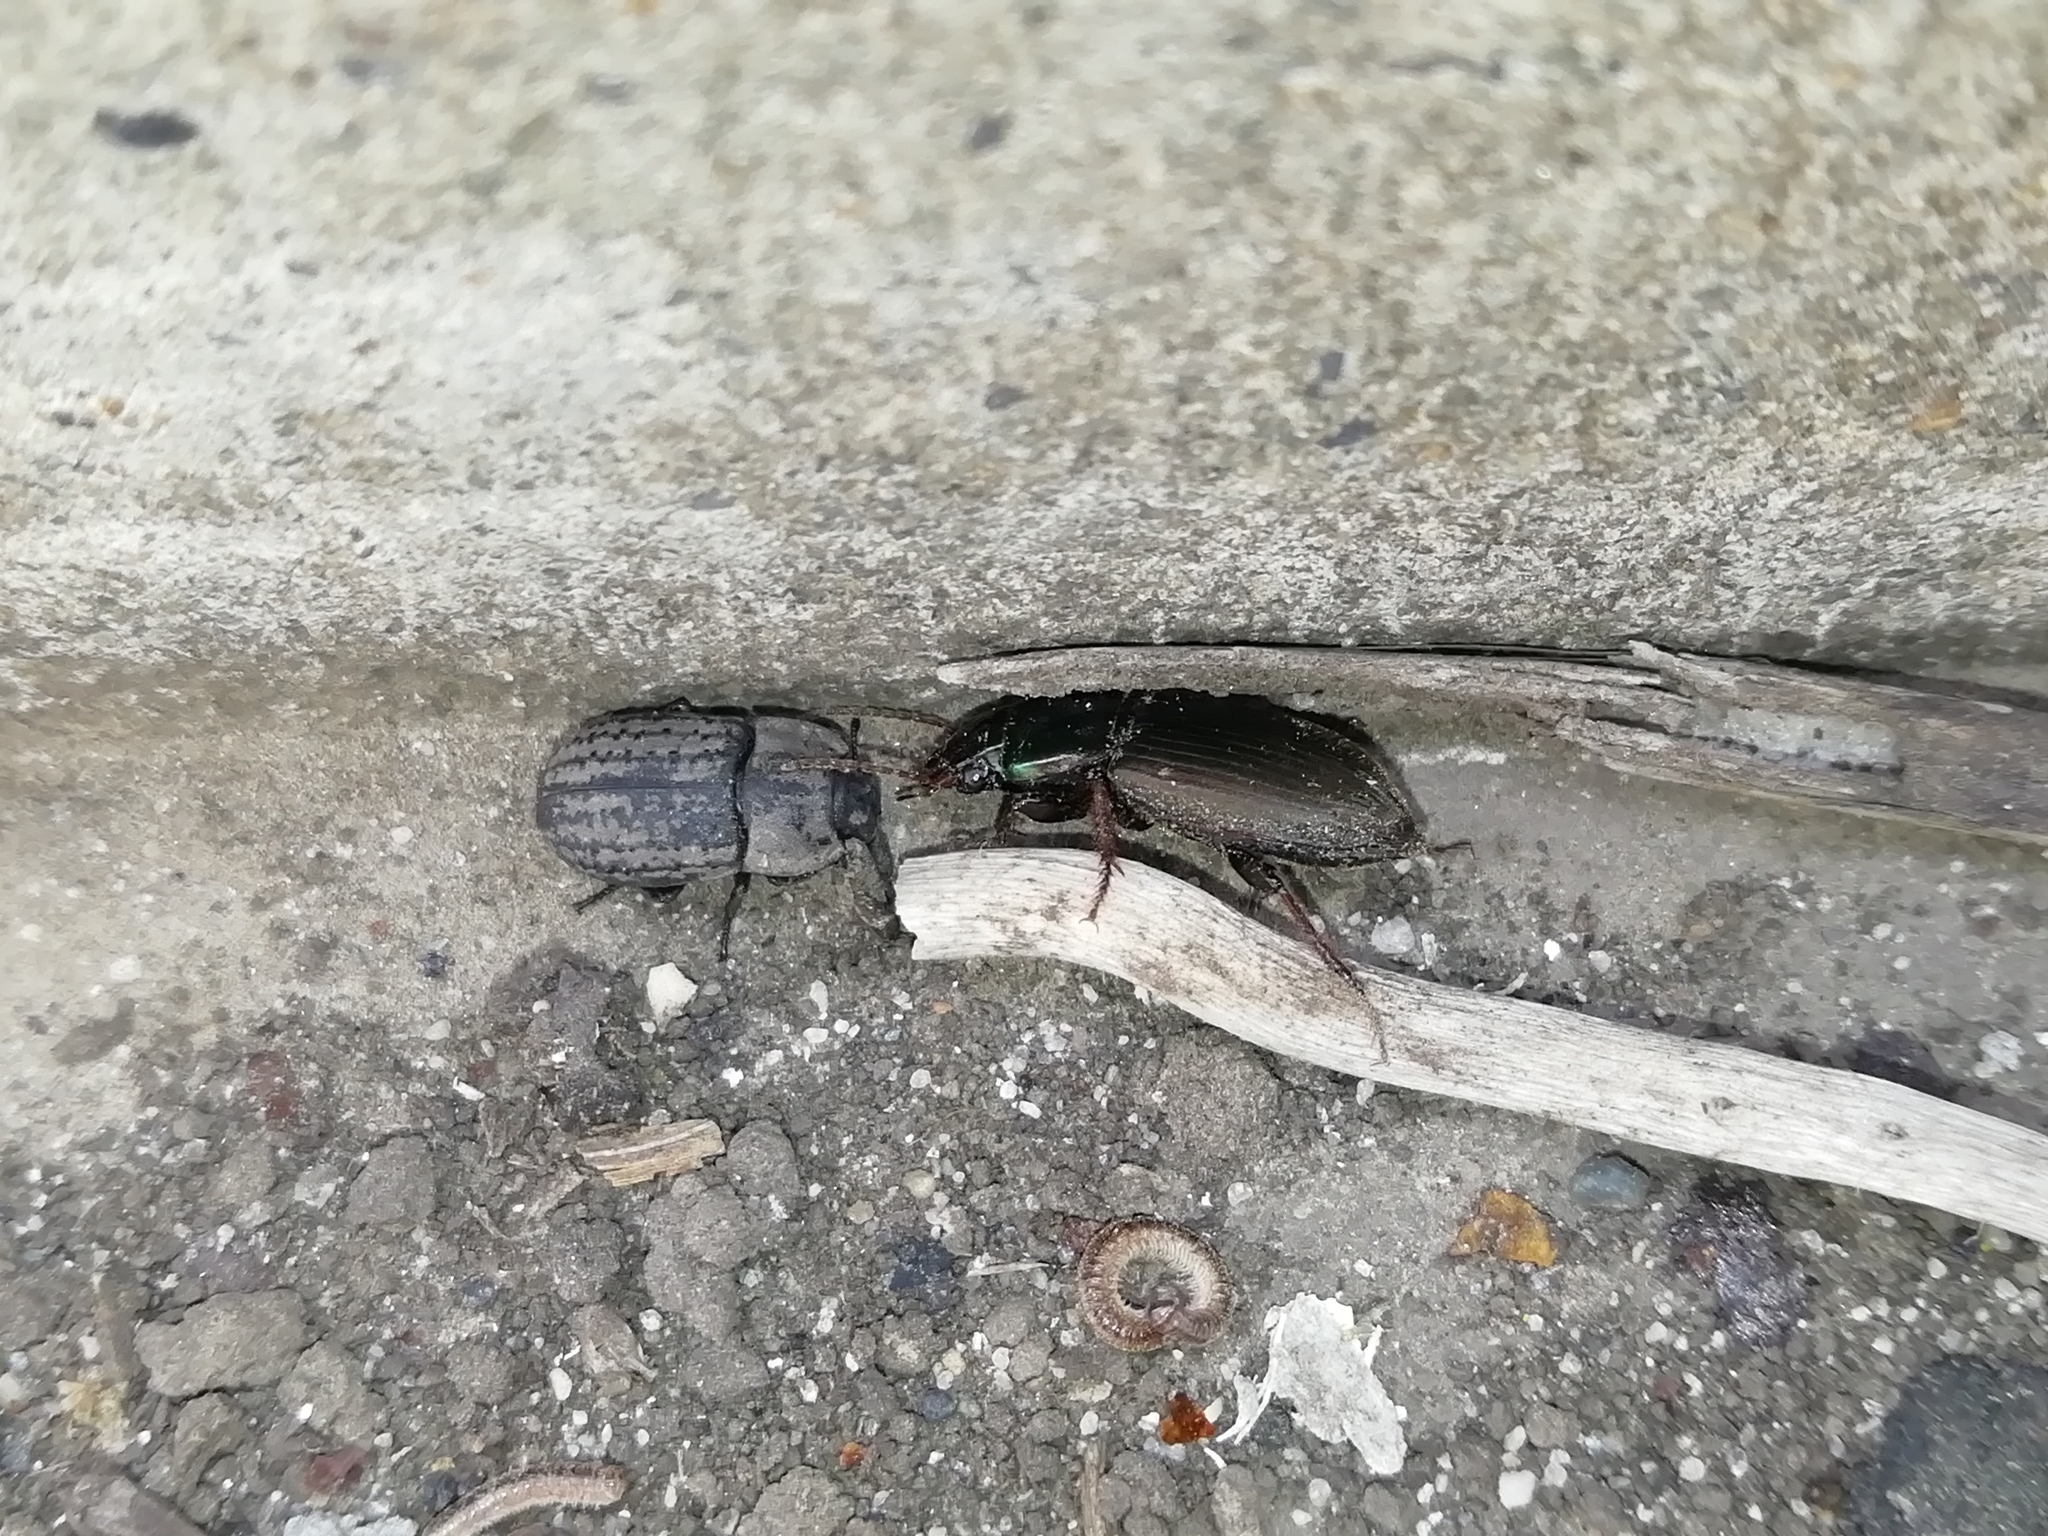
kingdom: Animalia
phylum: Arthropoda
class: Insecta
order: Coleoptera
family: Carabidae
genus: Harpalus
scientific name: Harpalus affinis
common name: Polychrome harp ground beetle
